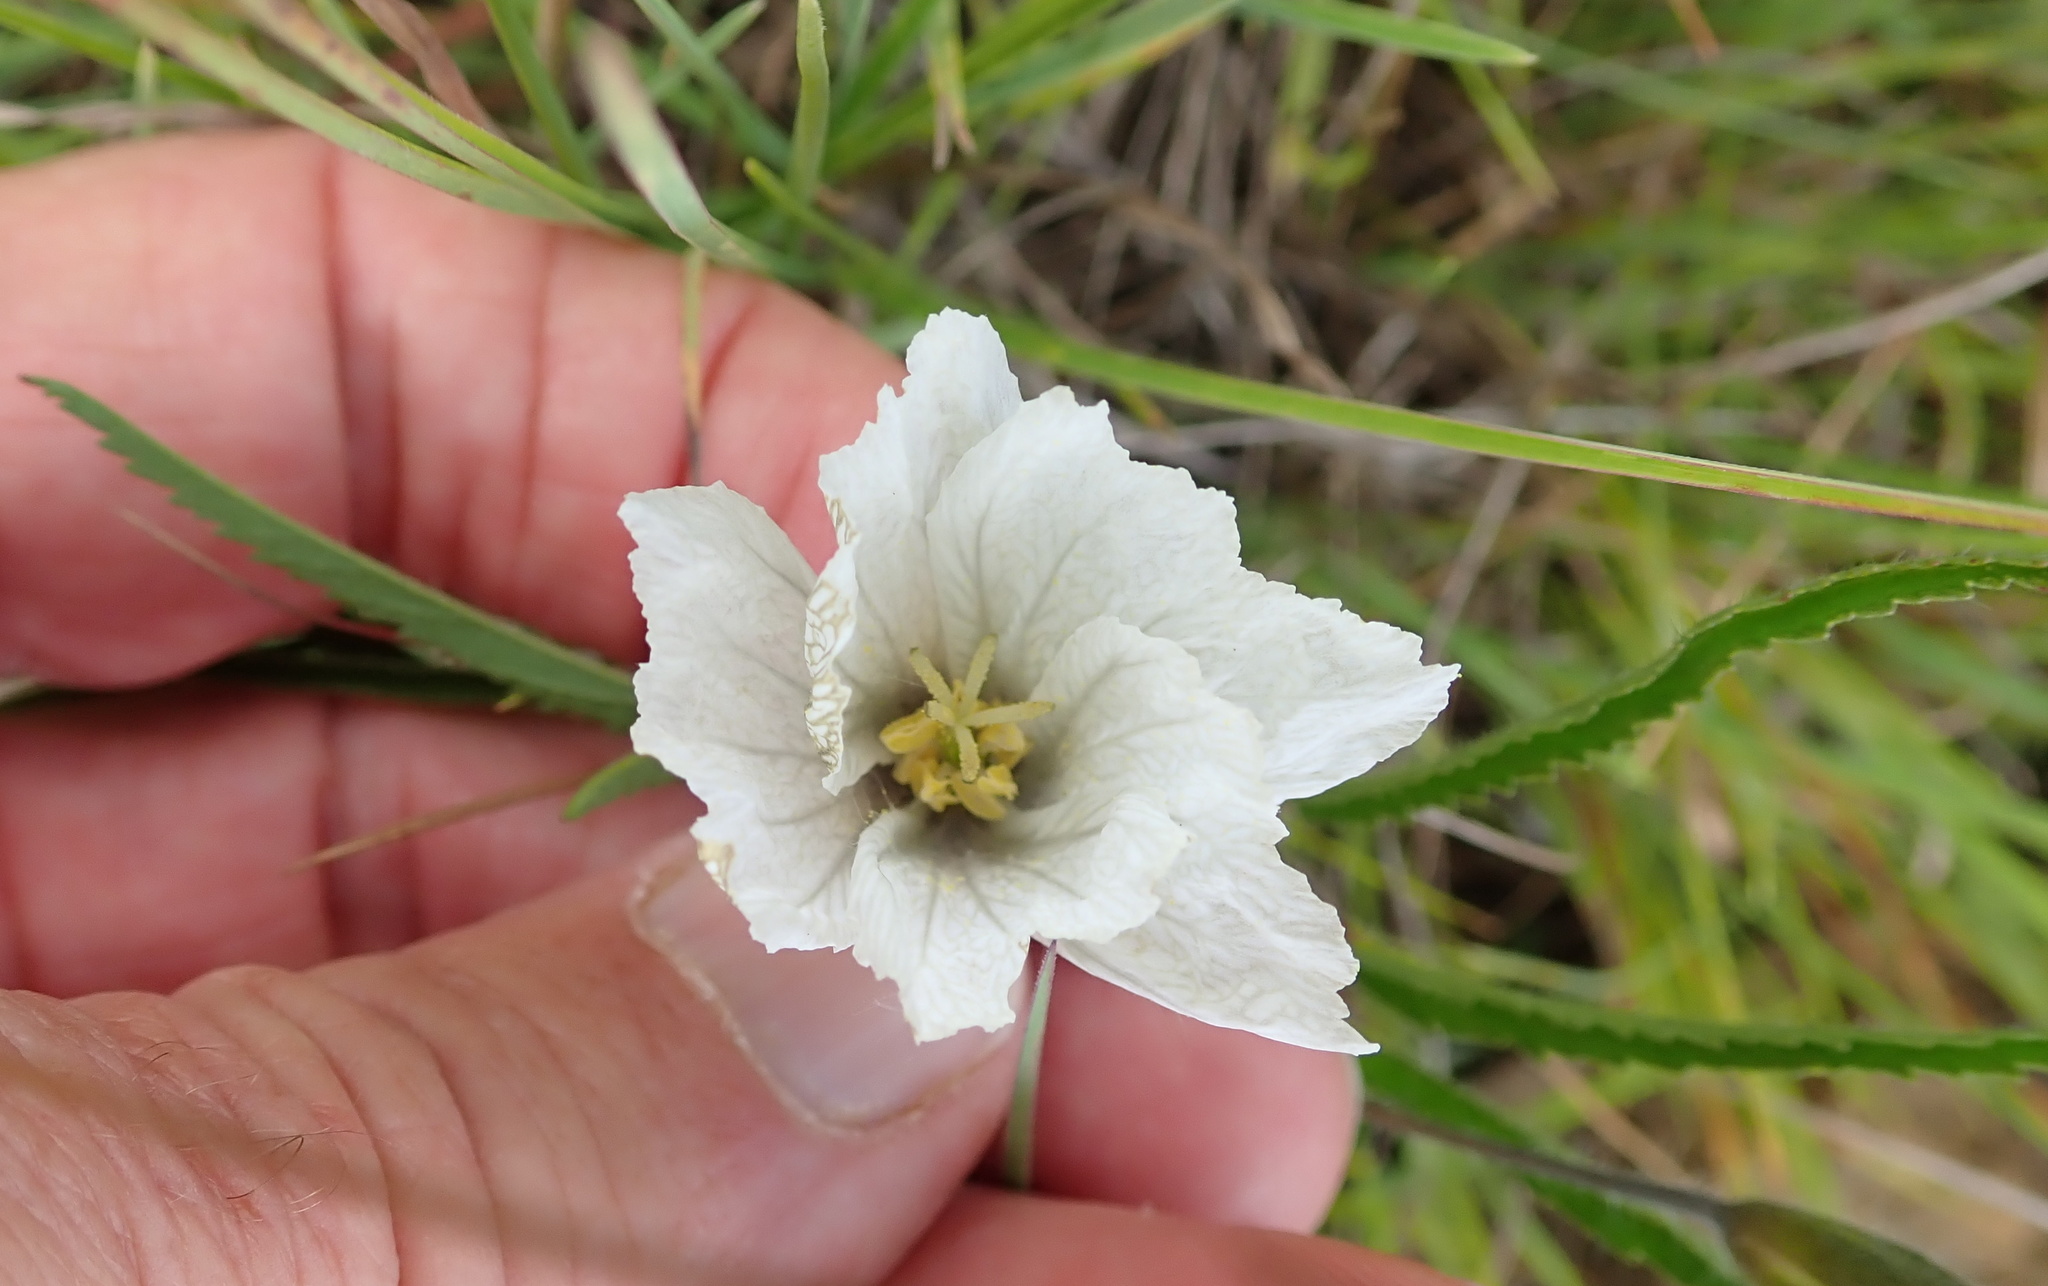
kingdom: Plantae
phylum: Tracheophyta
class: Magnoliopsida
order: Geraniales
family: Geraniaceae
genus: Monsonia
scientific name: Monsonia attenuata
